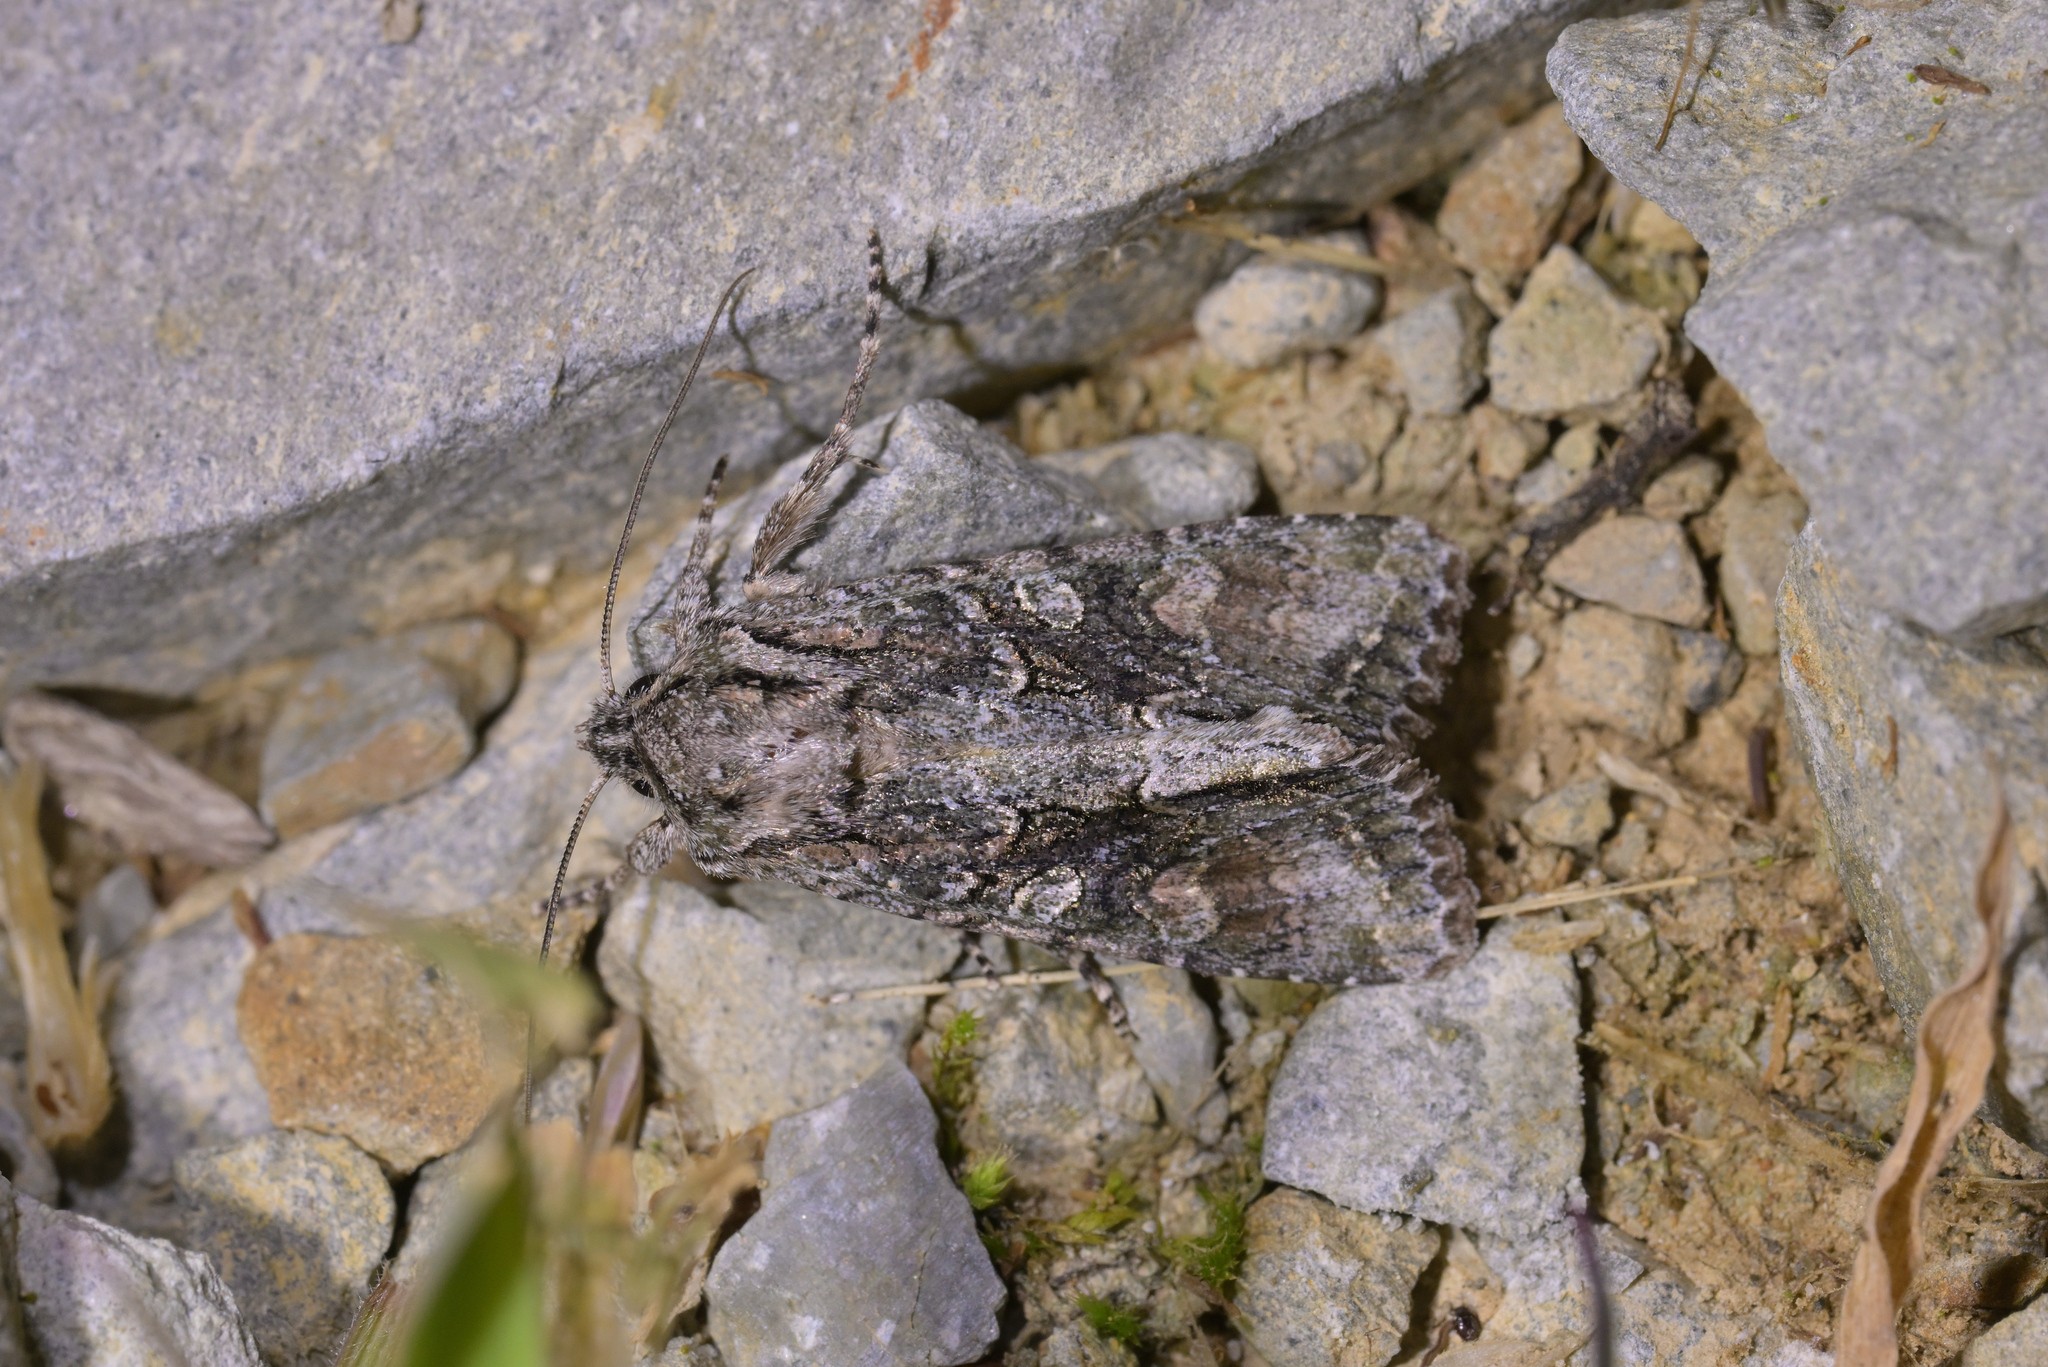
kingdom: Animalia
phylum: Arthropoda
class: Insecta
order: Lepidoptera
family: Noctuidae
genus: Ichneutica
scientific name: Ichneutica mutans
